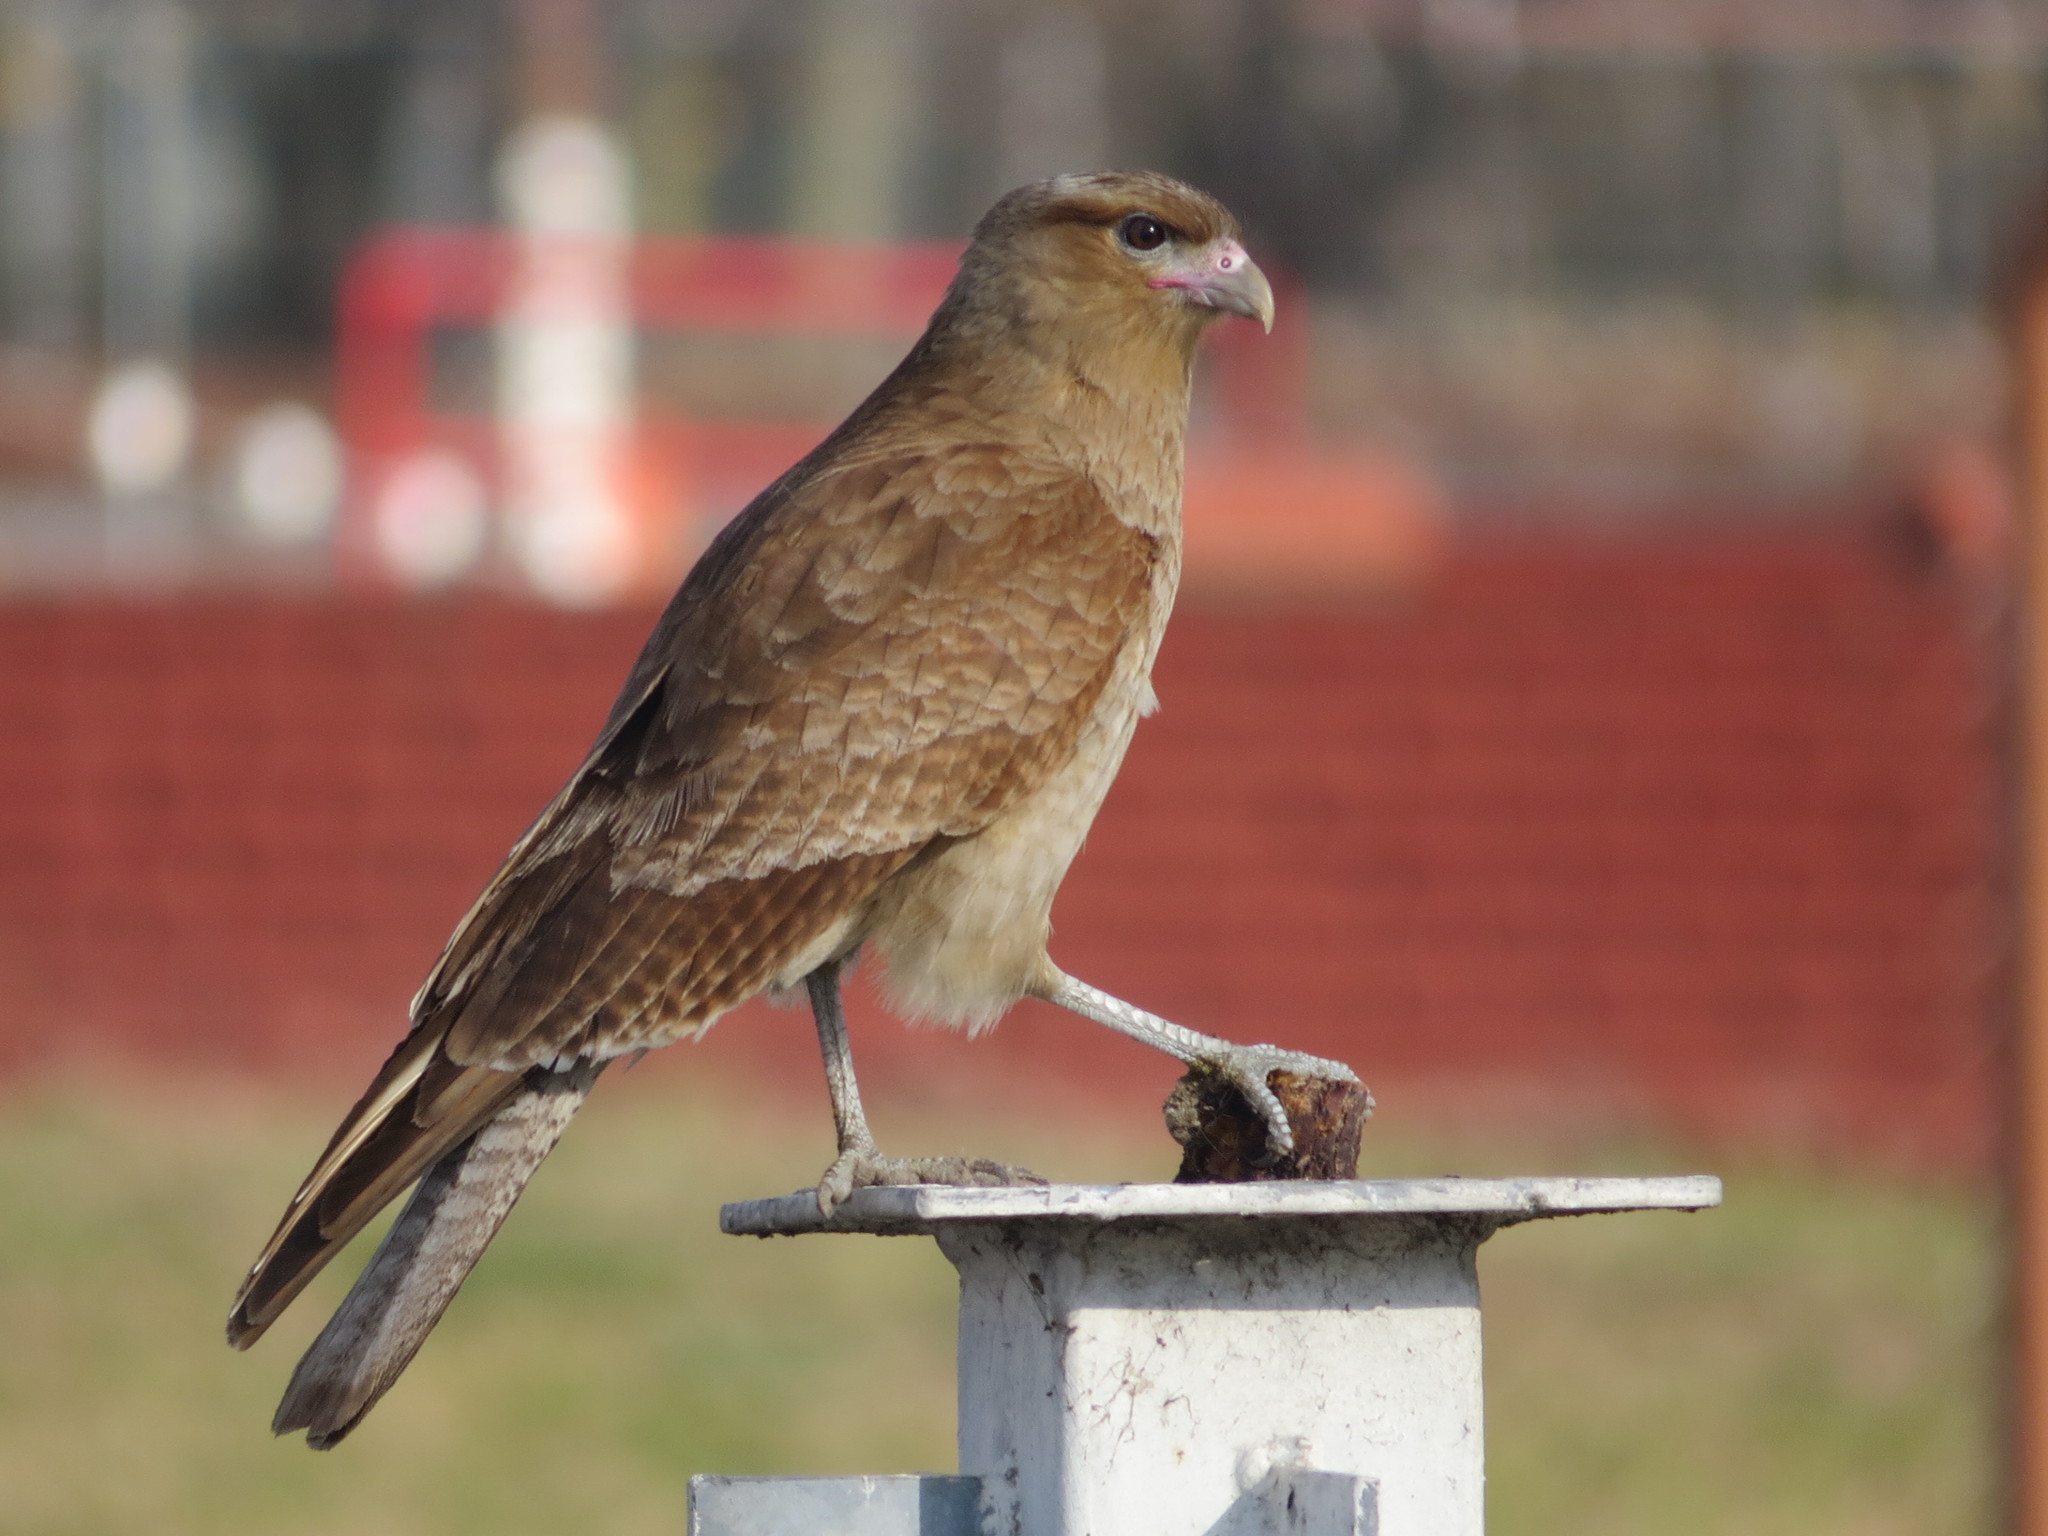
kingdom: Animalia
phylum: Chordata
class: Aves
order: Falconiformes
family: Falconidae
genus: Daptrius
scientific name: Daptrius
